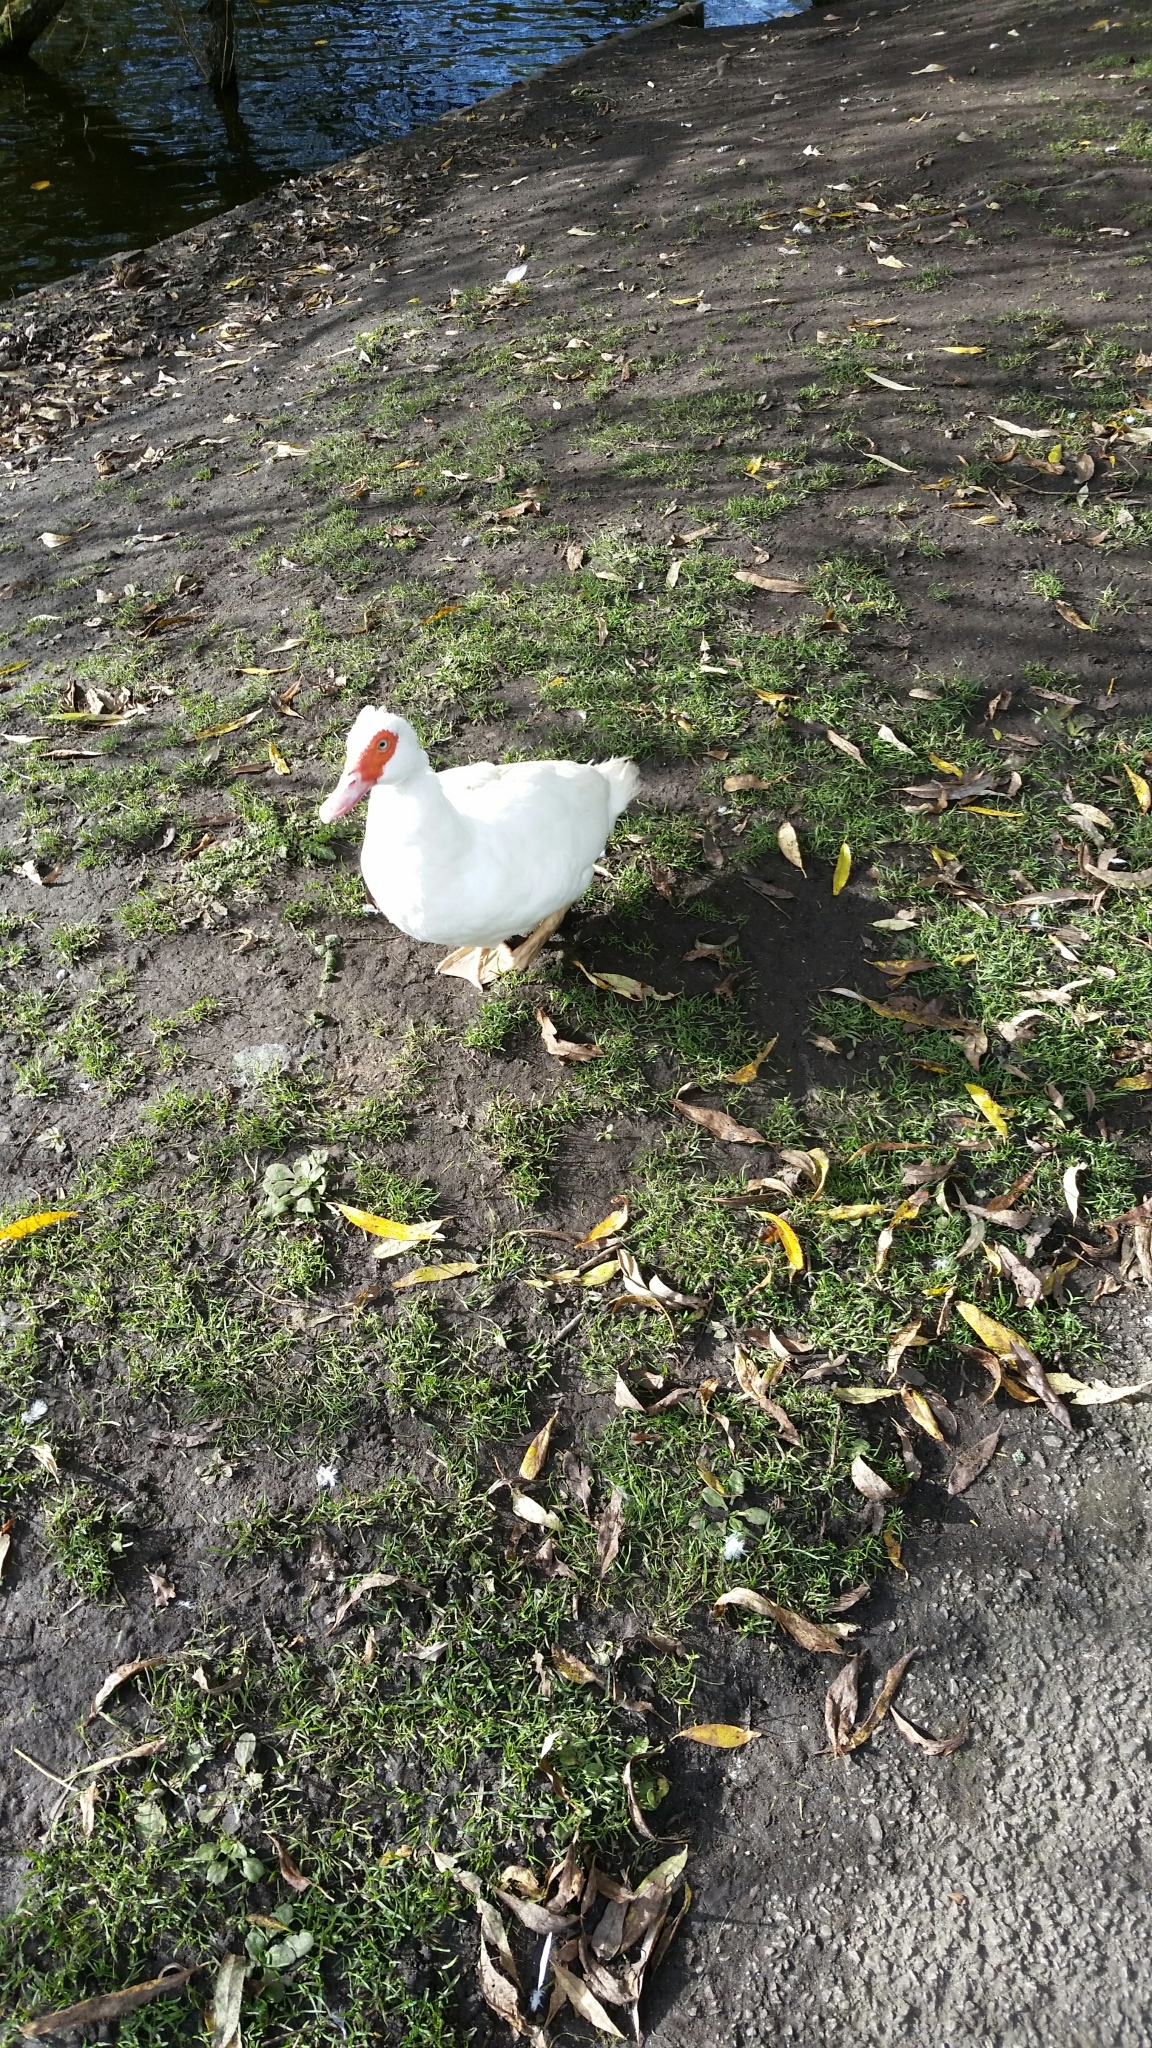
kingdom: Animalia
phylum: Chordata
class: Aves
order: Anseriformes
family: Anatidae
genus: Cairina
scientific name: Cairina moschata
